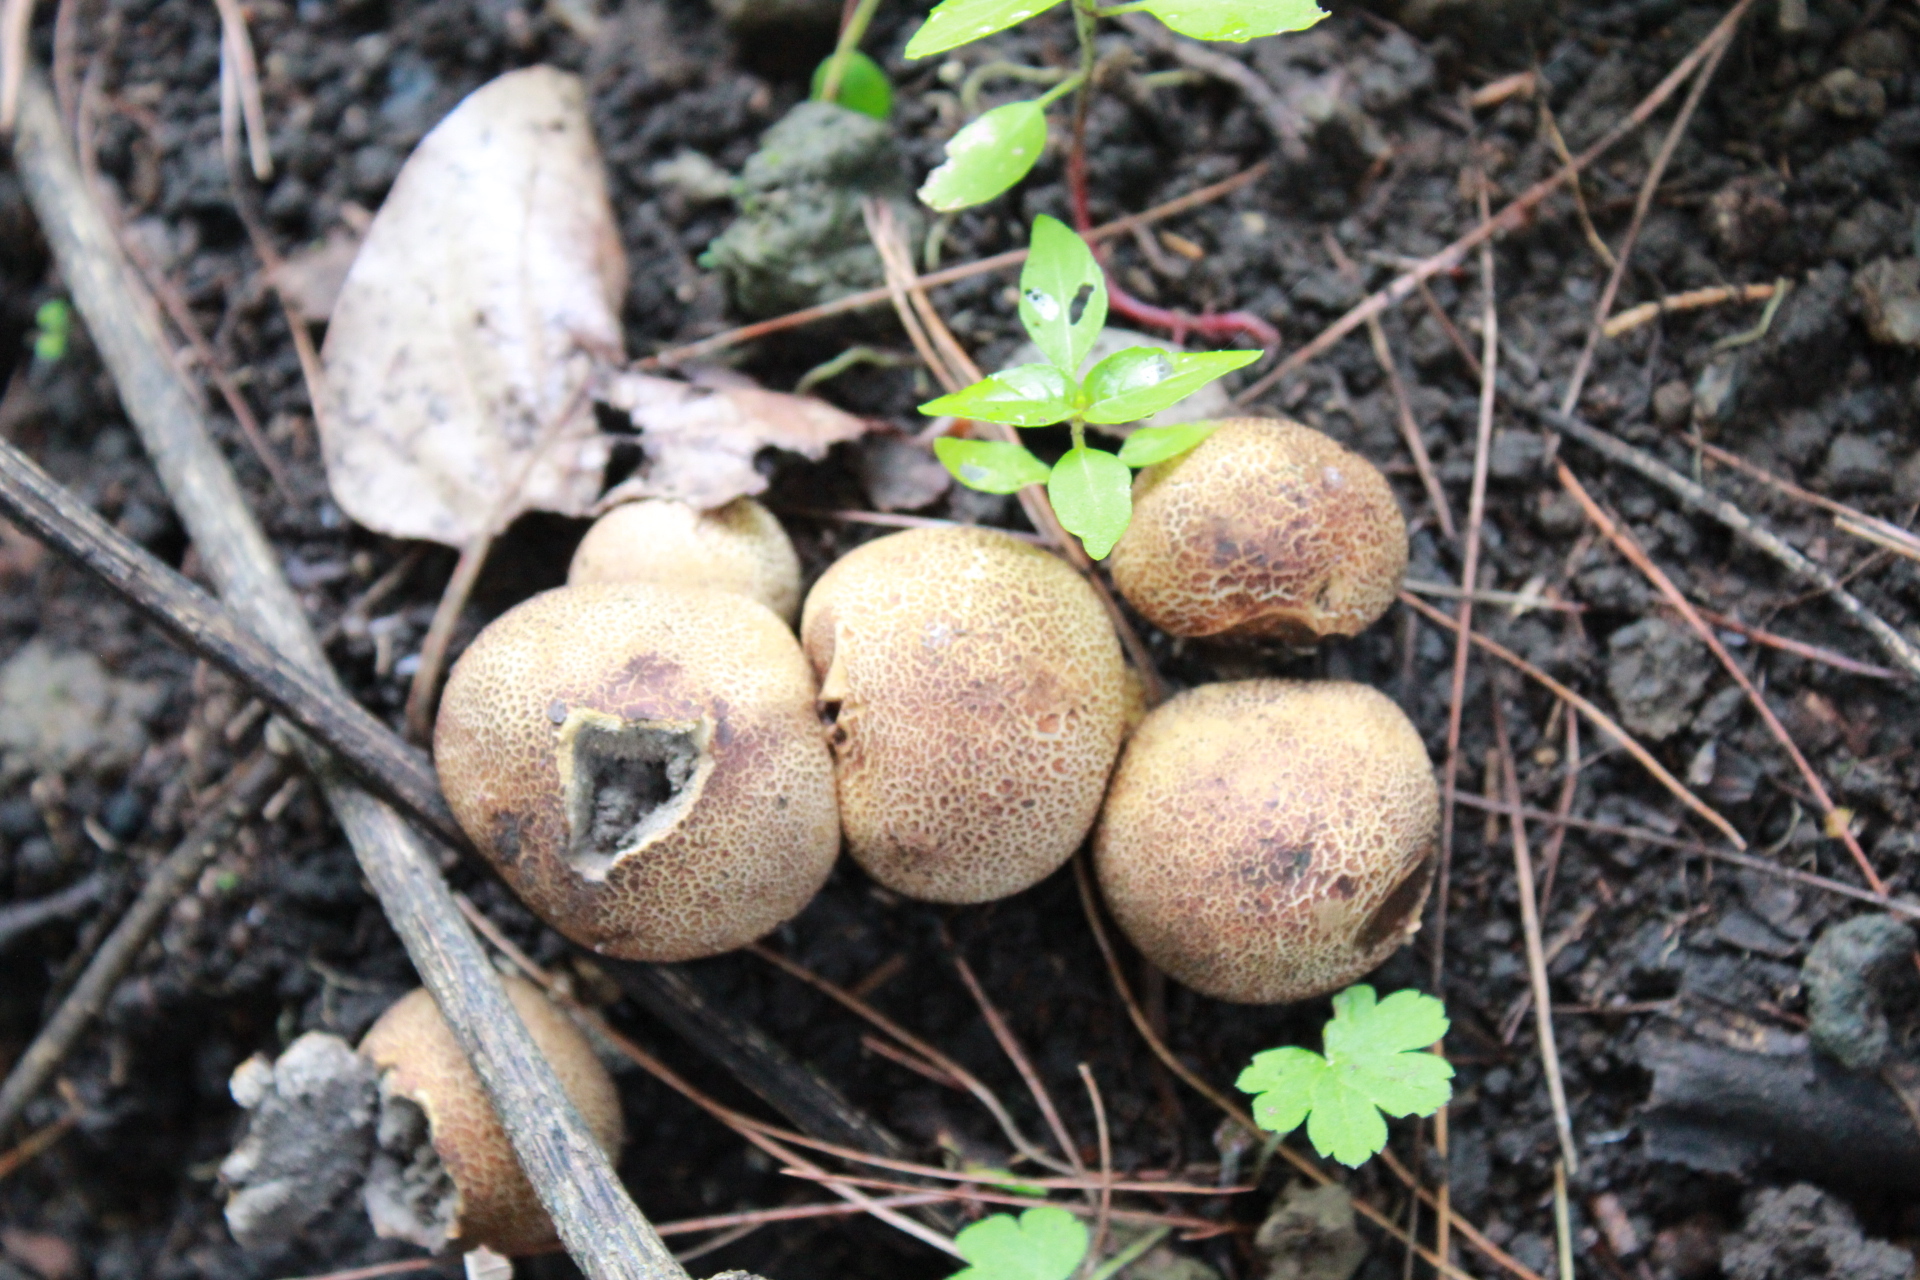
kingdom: Fungi
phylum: Basidiomycota
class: Agaricomycetes
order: Boletales
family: Sclerodermataceae
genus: Scleroderma
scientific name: Scleroderma citrinum
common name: Common earthball
